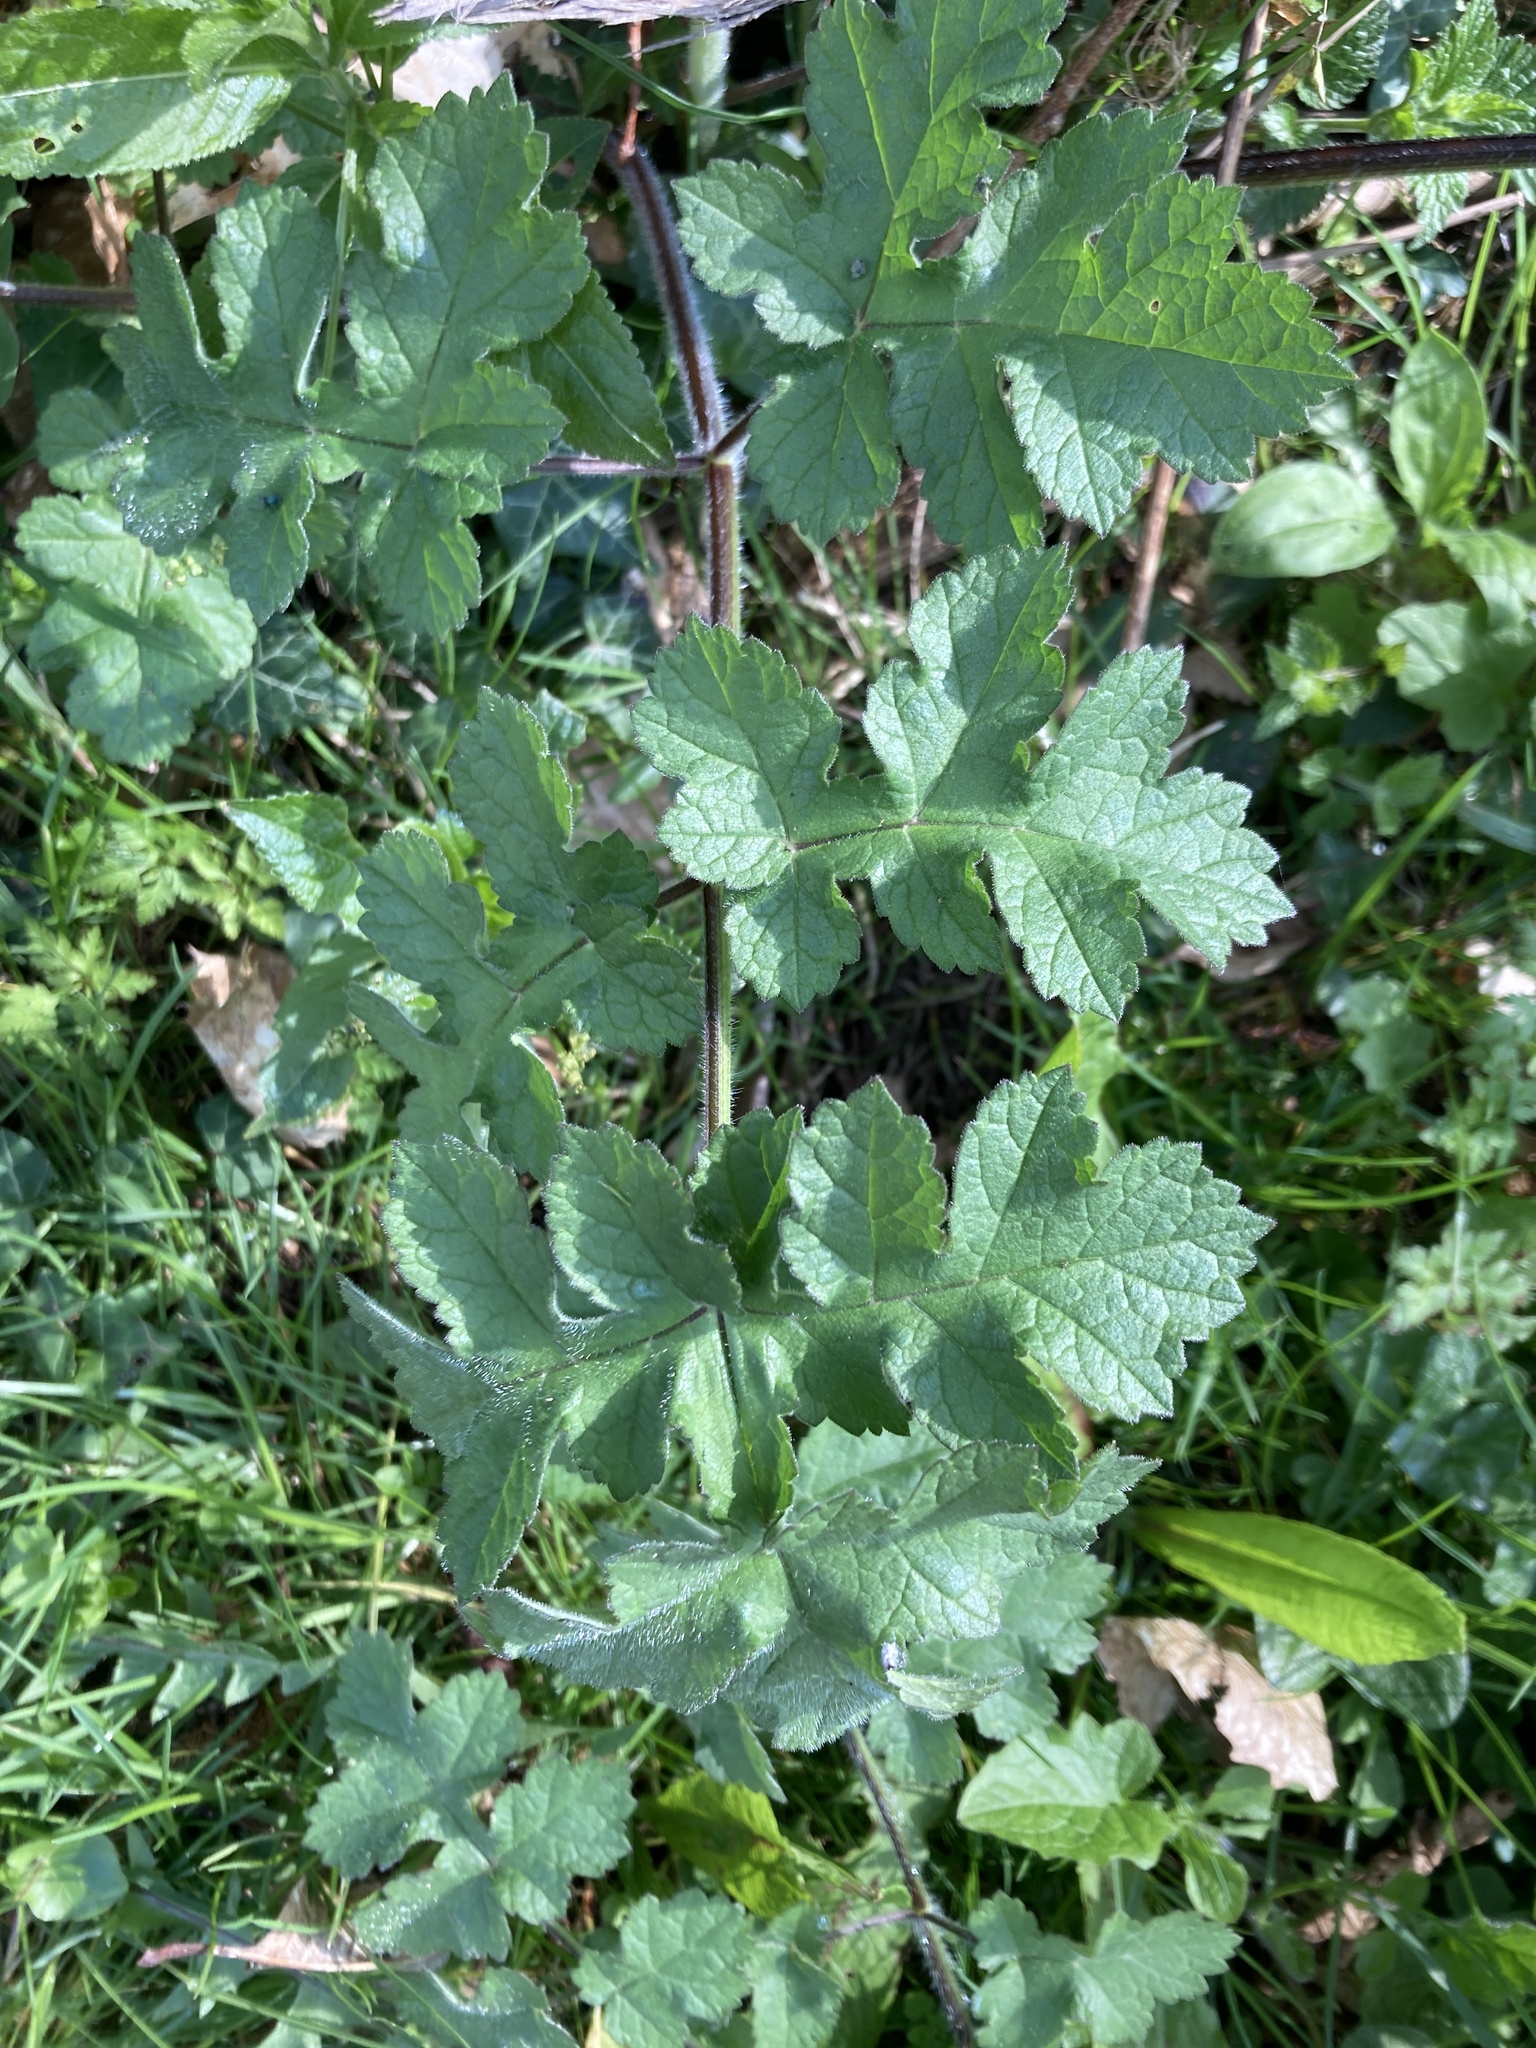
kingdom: Plantae
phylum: Tracheophyta
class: Magnoliopsida
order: Apiales
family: Apiaceae
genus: Heracleum
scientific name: Heracleum sphondylium
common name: Hogweed
